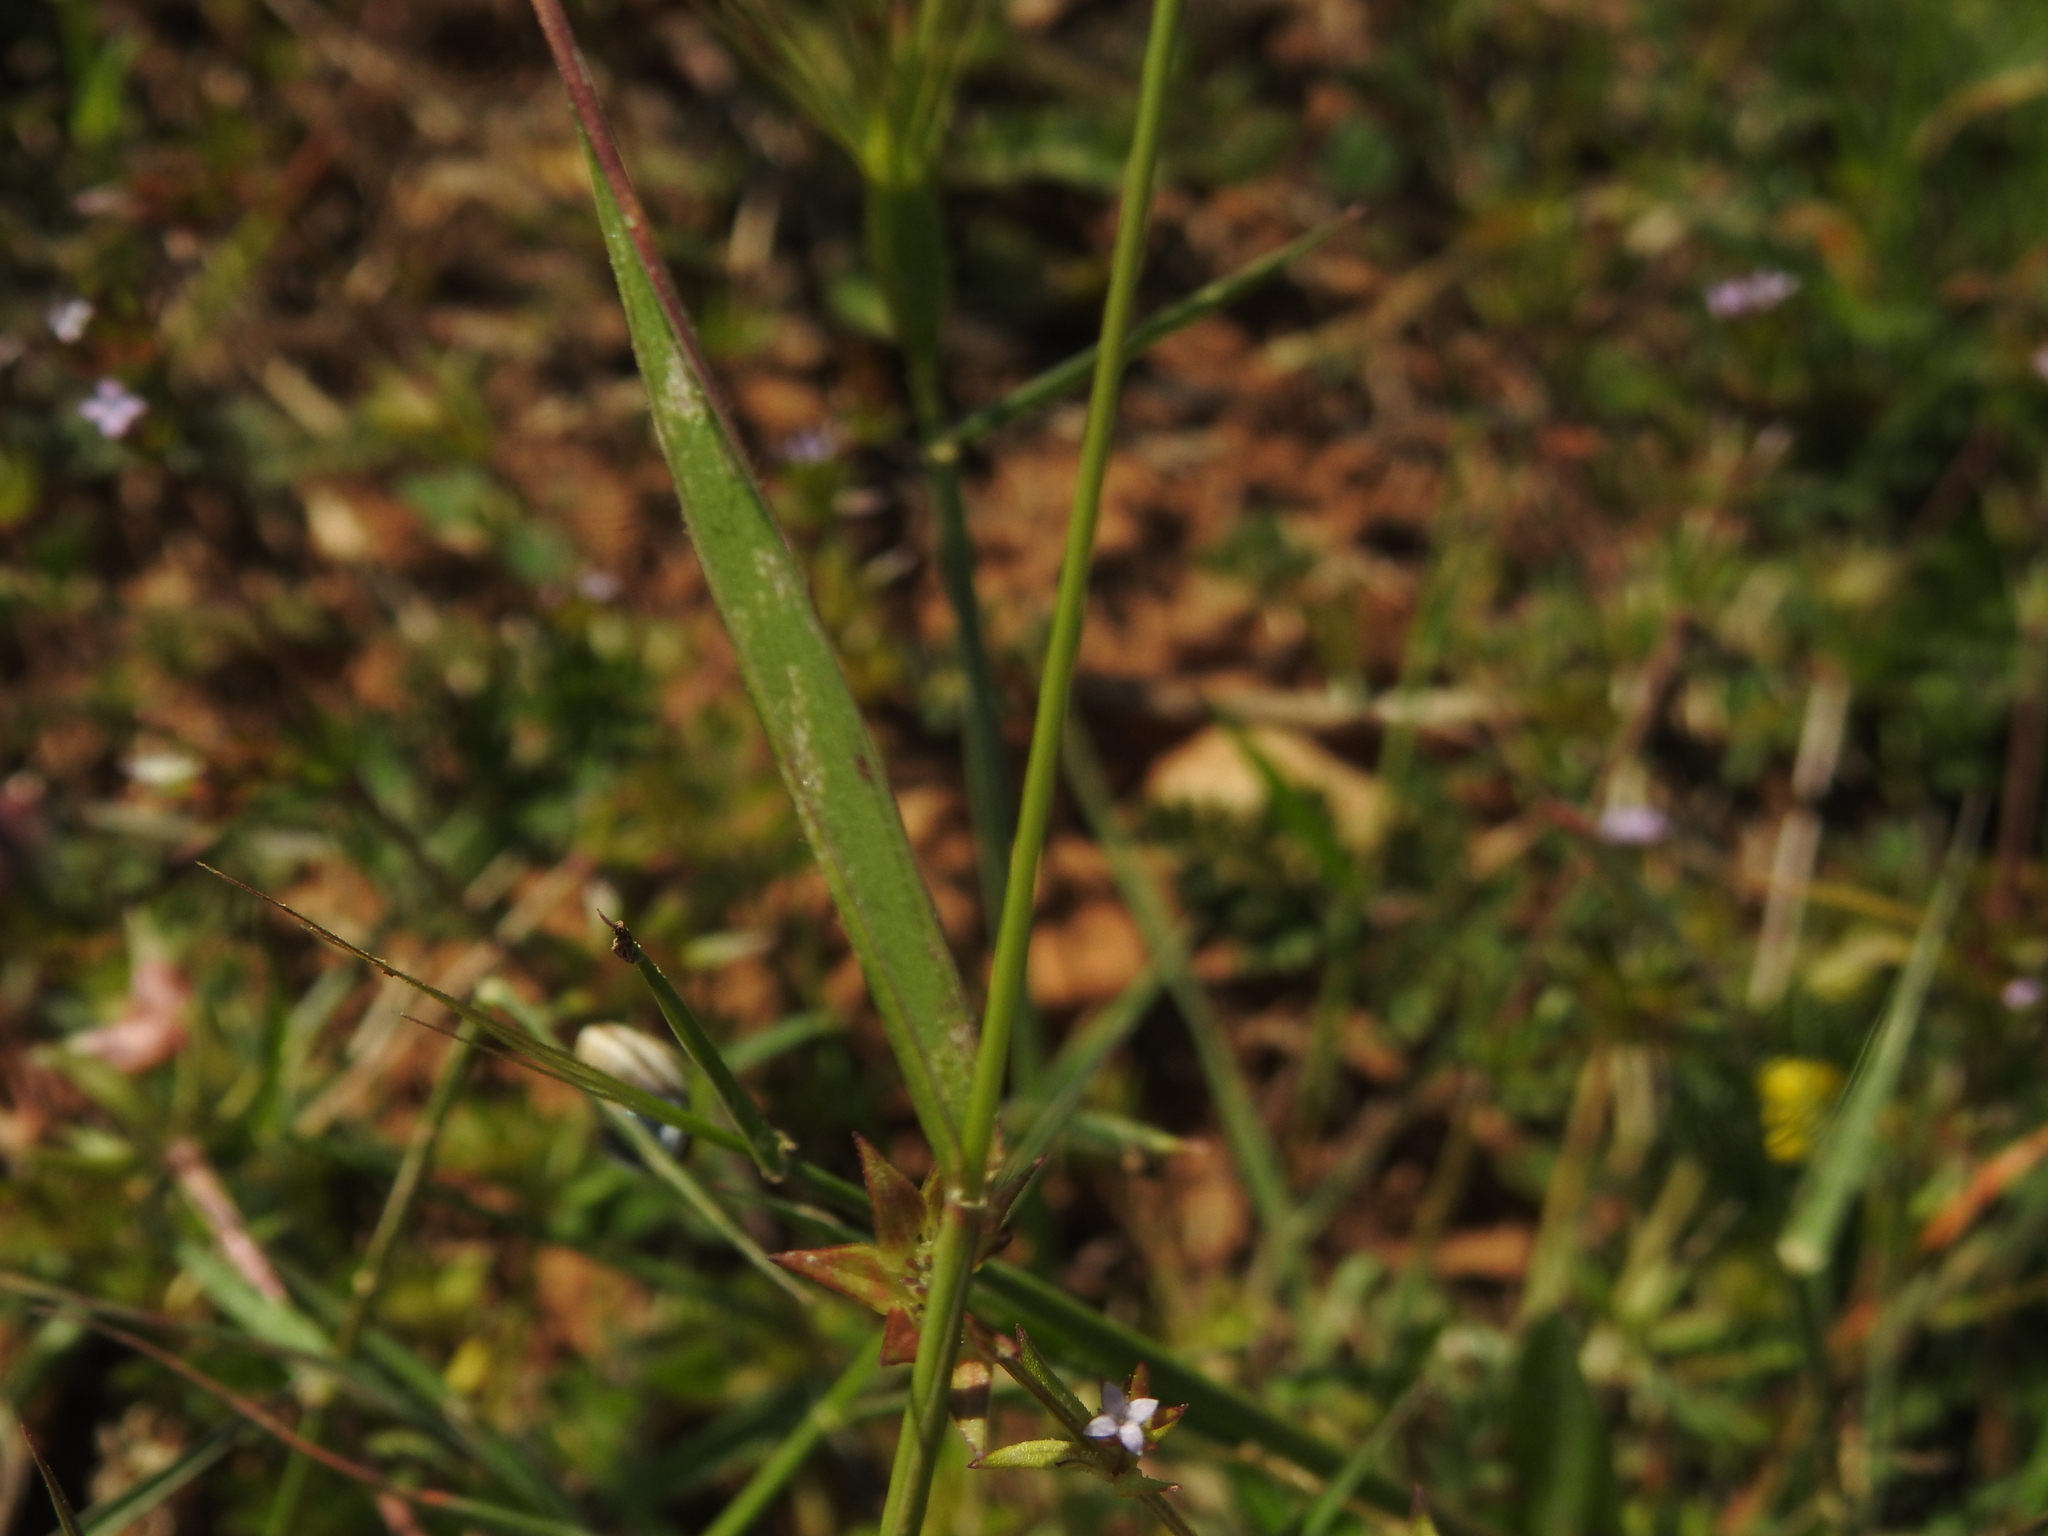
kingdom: Plantae
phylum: Tracheophyta
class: Liliopsida
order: Poales
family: Poaceae
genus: Aegilops
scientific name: Aegilops cylindrica
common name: Jointed goatgrass
